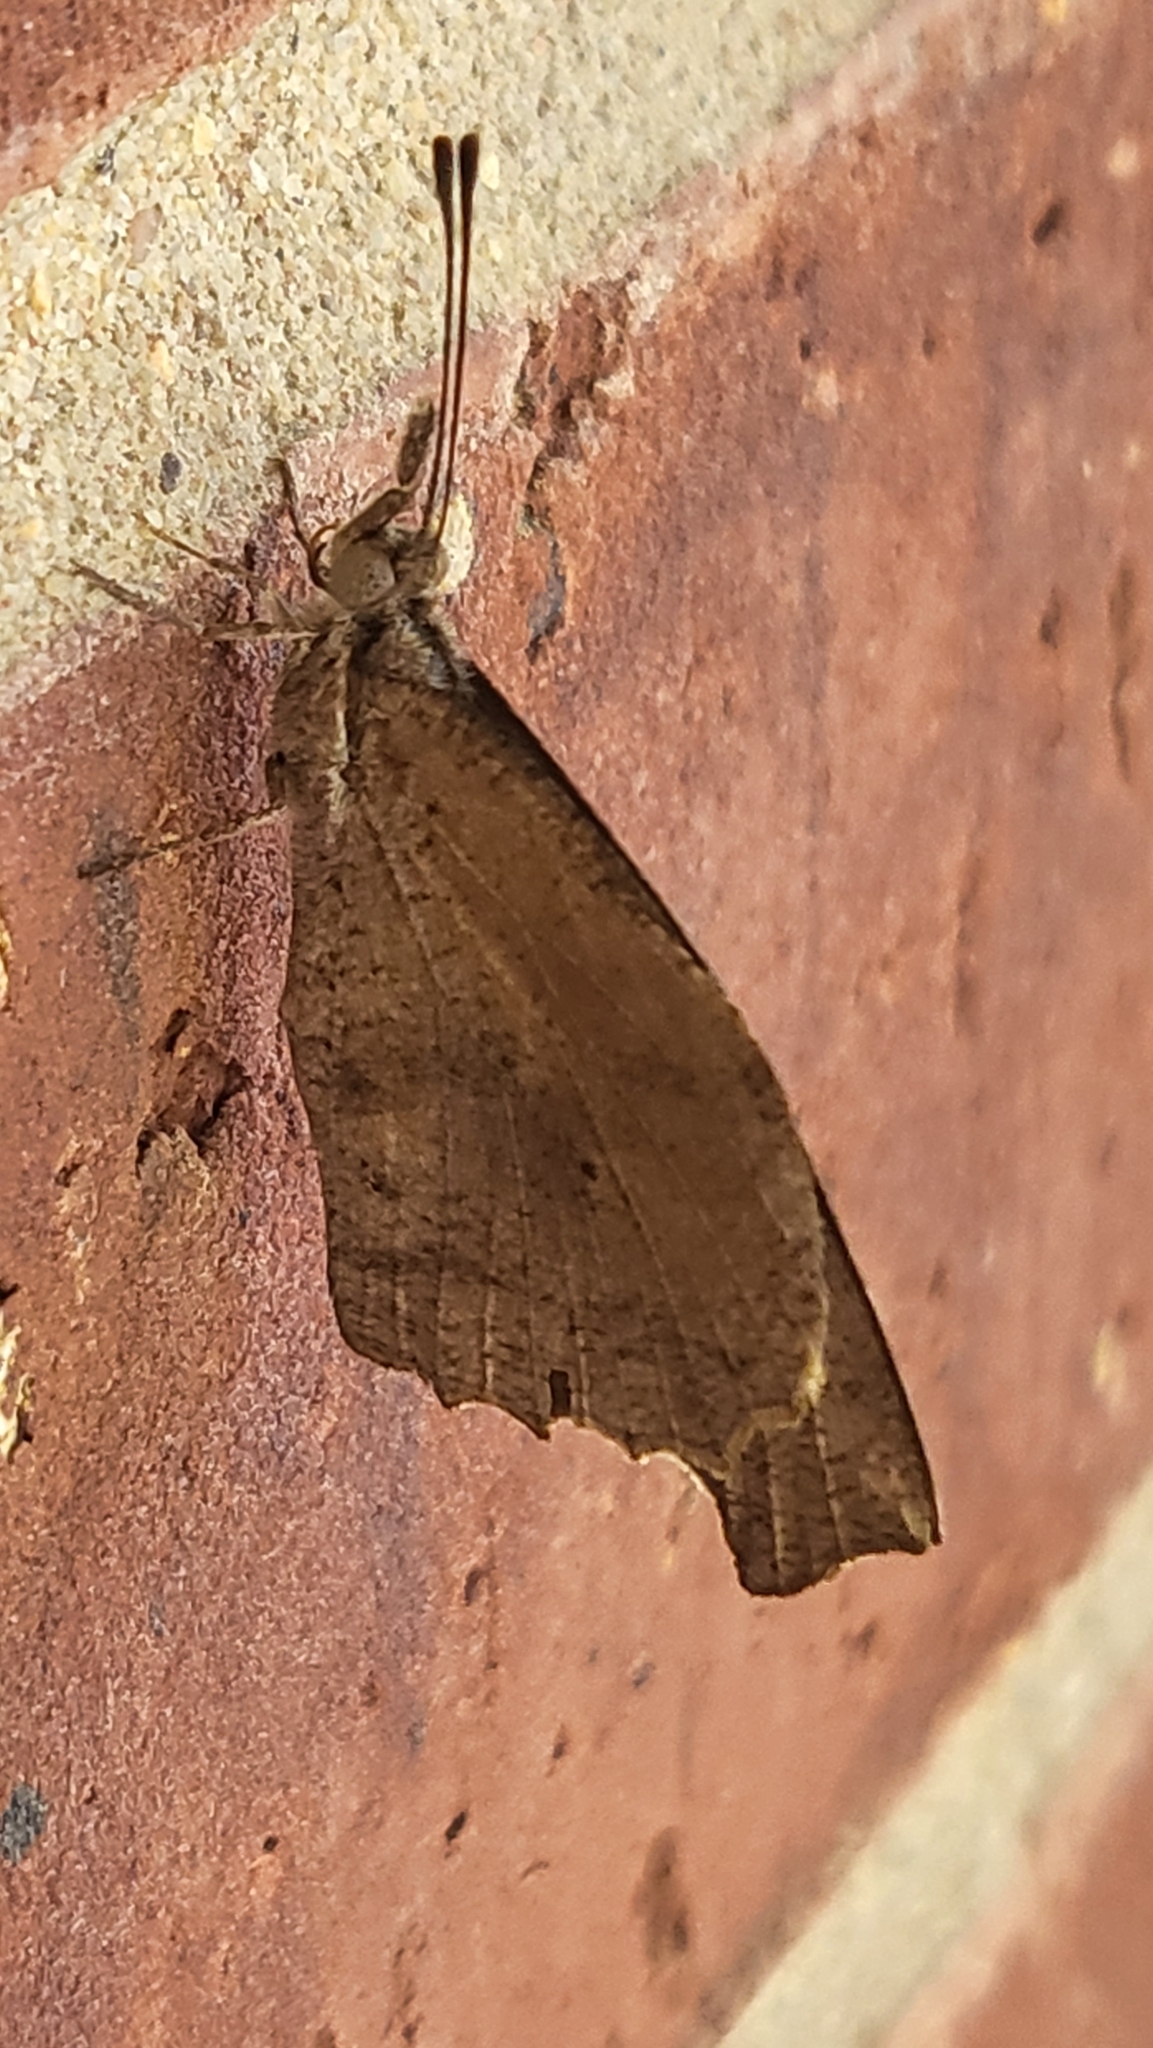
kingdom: Animalia
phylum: Arthropoda
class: Insecta
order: Lepidoptera
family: Nymphalidae
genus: Libytheana
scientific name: Libytheana carinenta
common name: American snout
